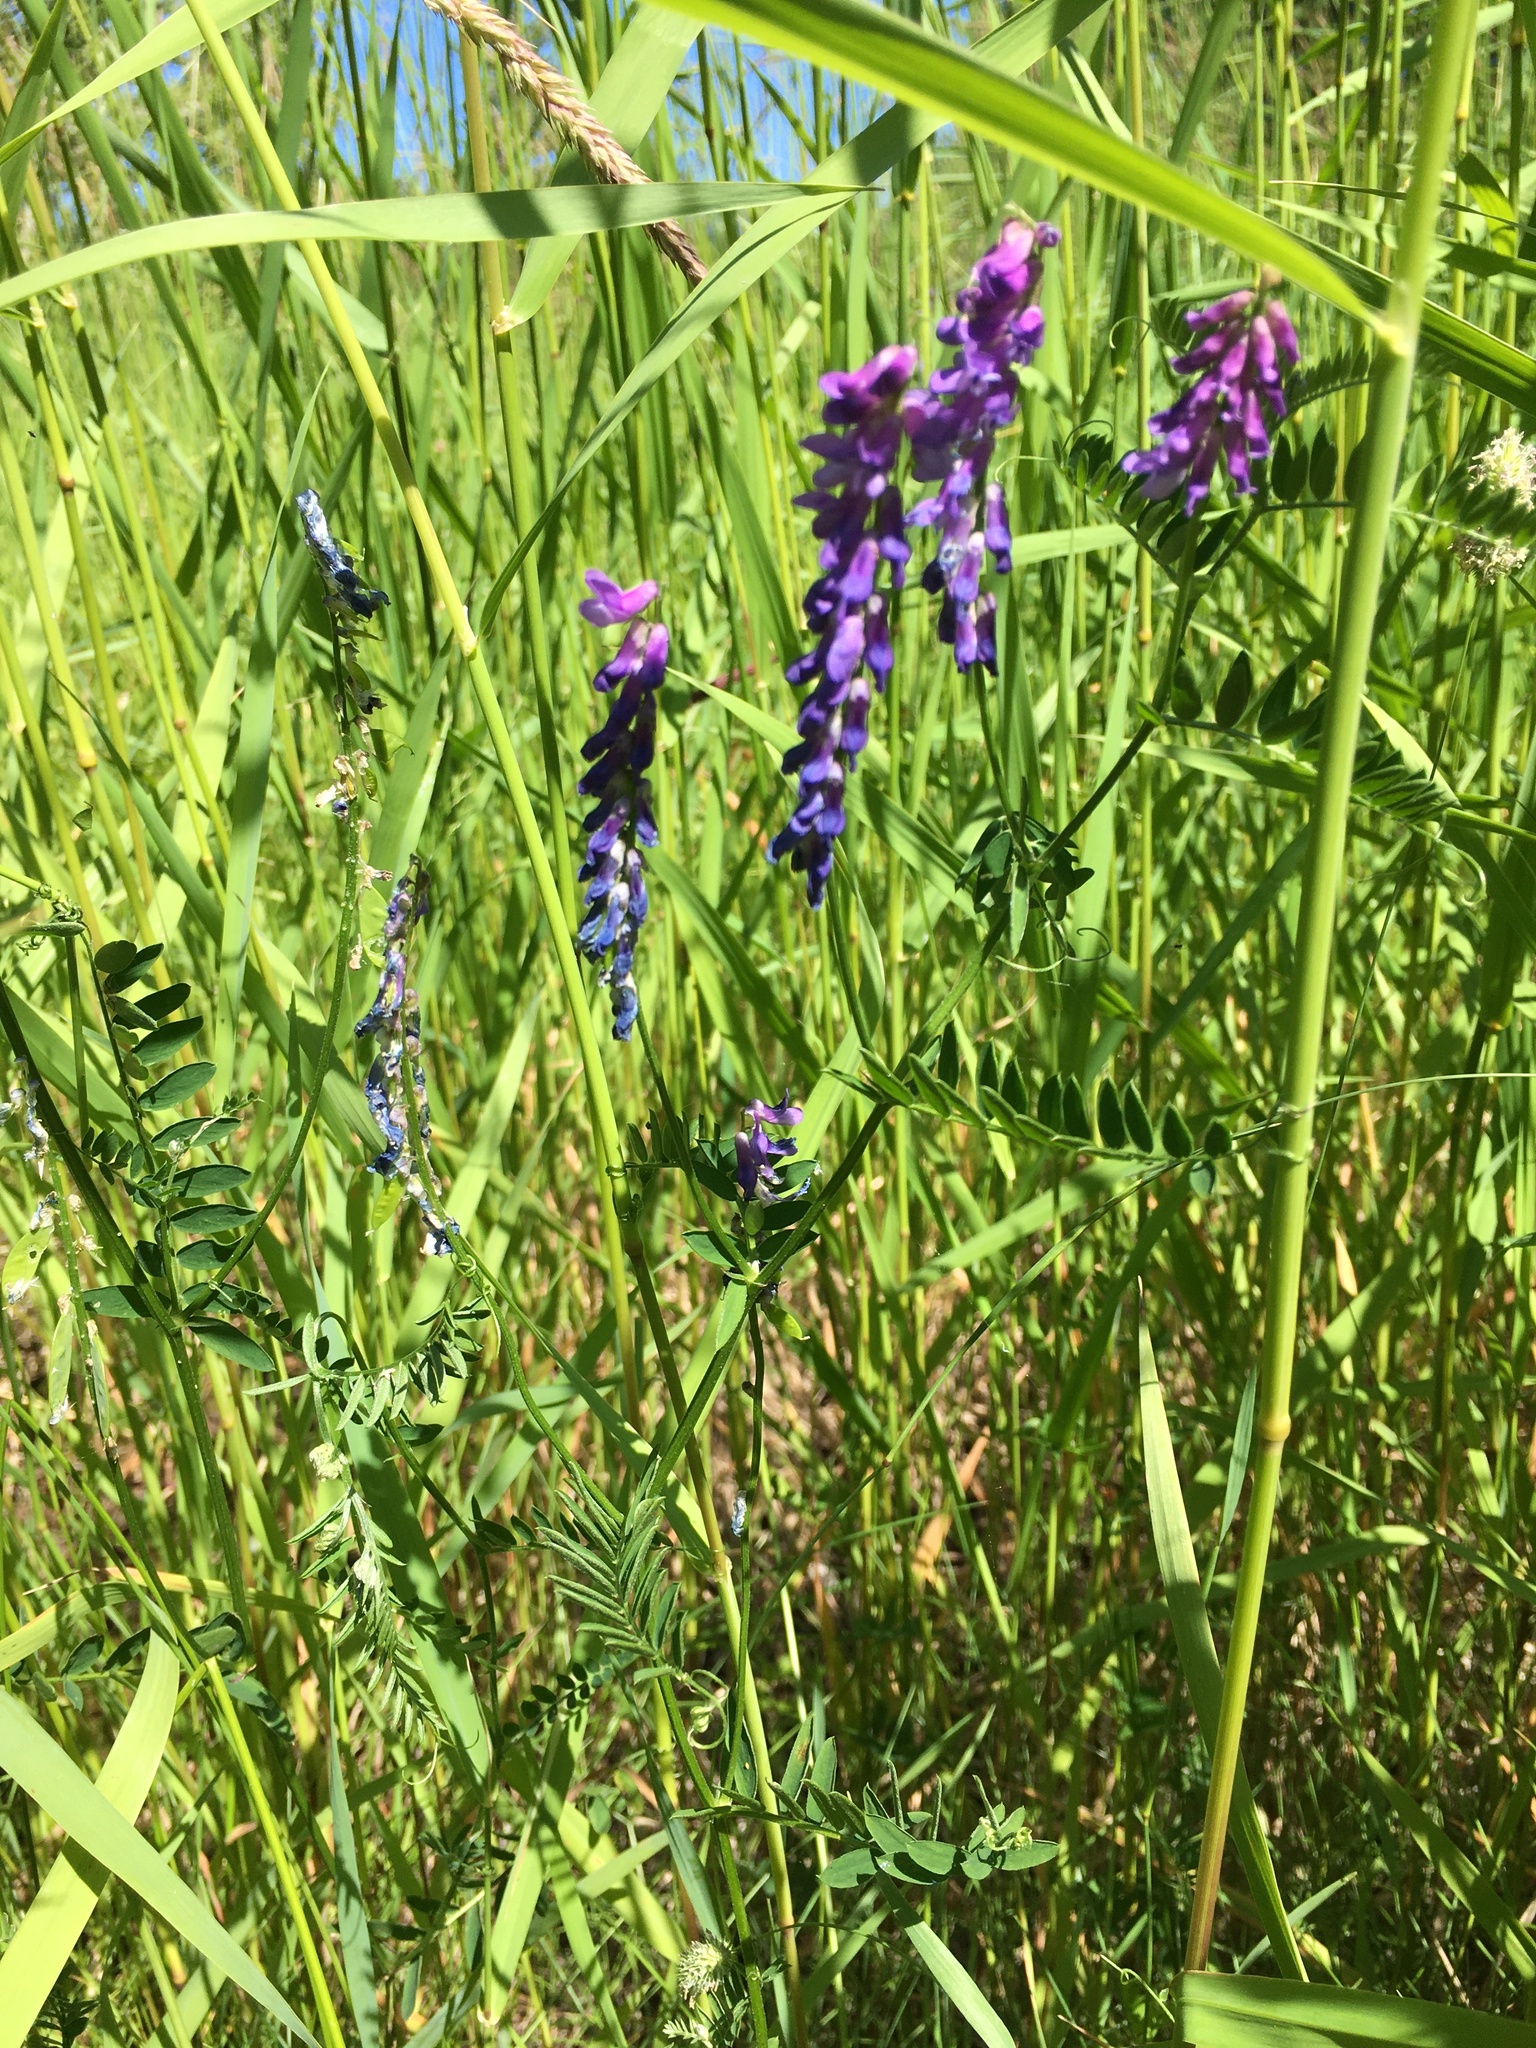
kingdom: Plantae
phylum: Tracheophyta
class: Magnoliopsida
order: Fabales
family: Fabaceae
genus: Vicia
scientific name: Vicia cracca
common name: Bird vetch
